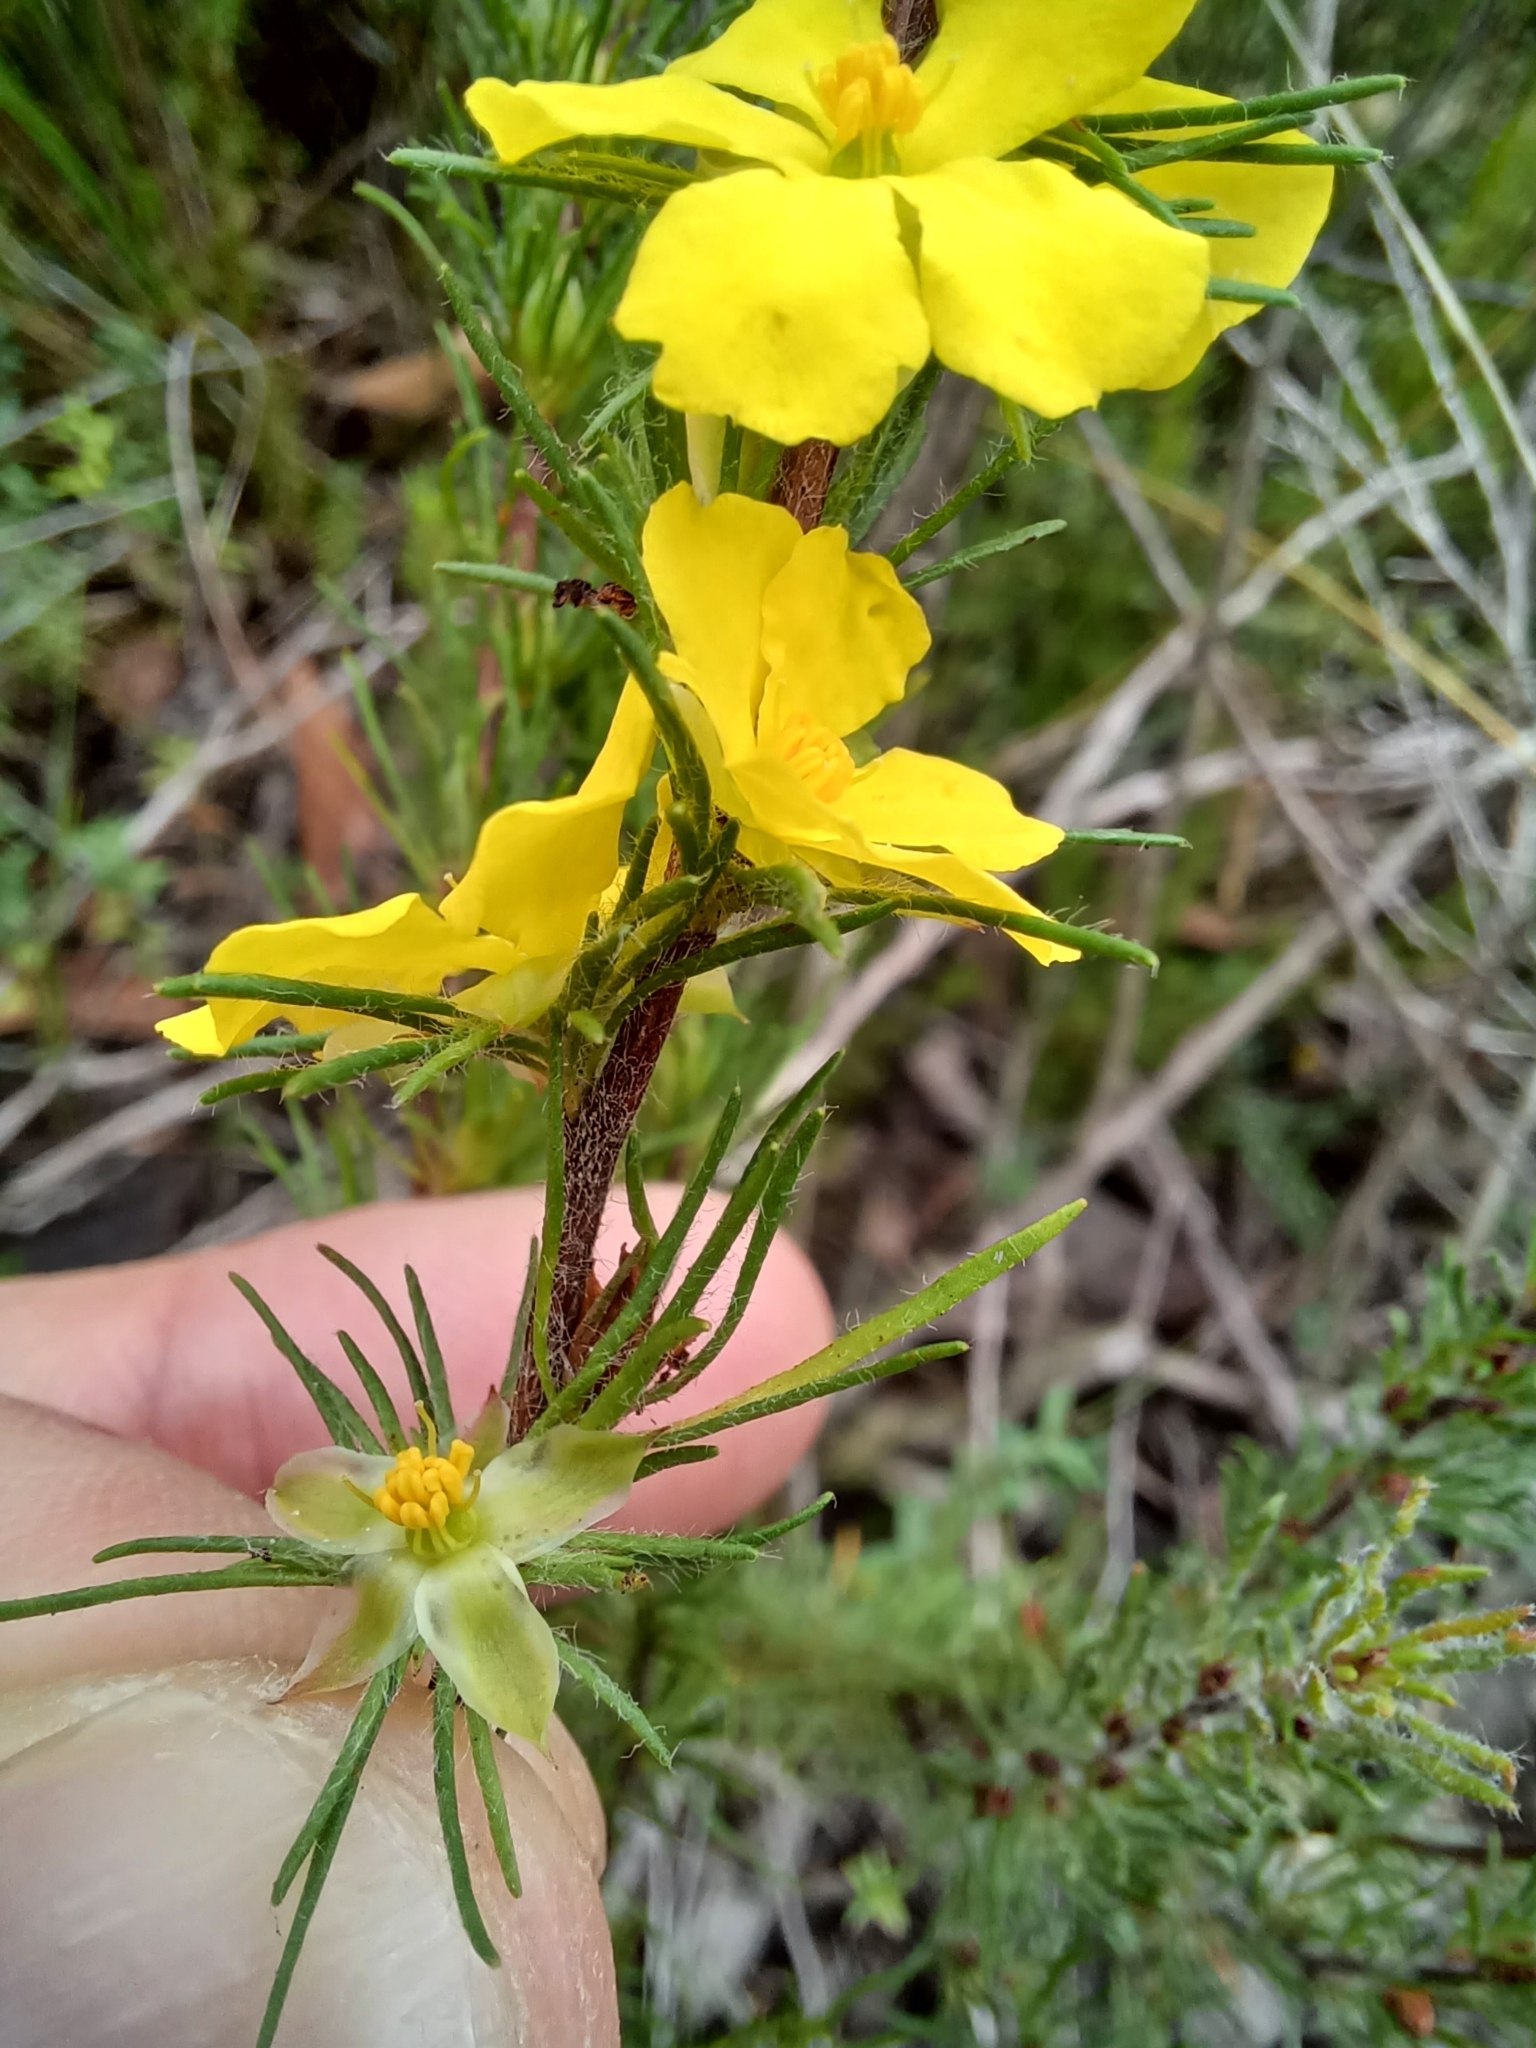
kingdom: Plantae
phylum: Tracheophyta
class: Magnoliopsida
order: Dilleniales
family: Dilleniaceae
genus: Hibbertia
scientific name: Hibbertia fasciculata
